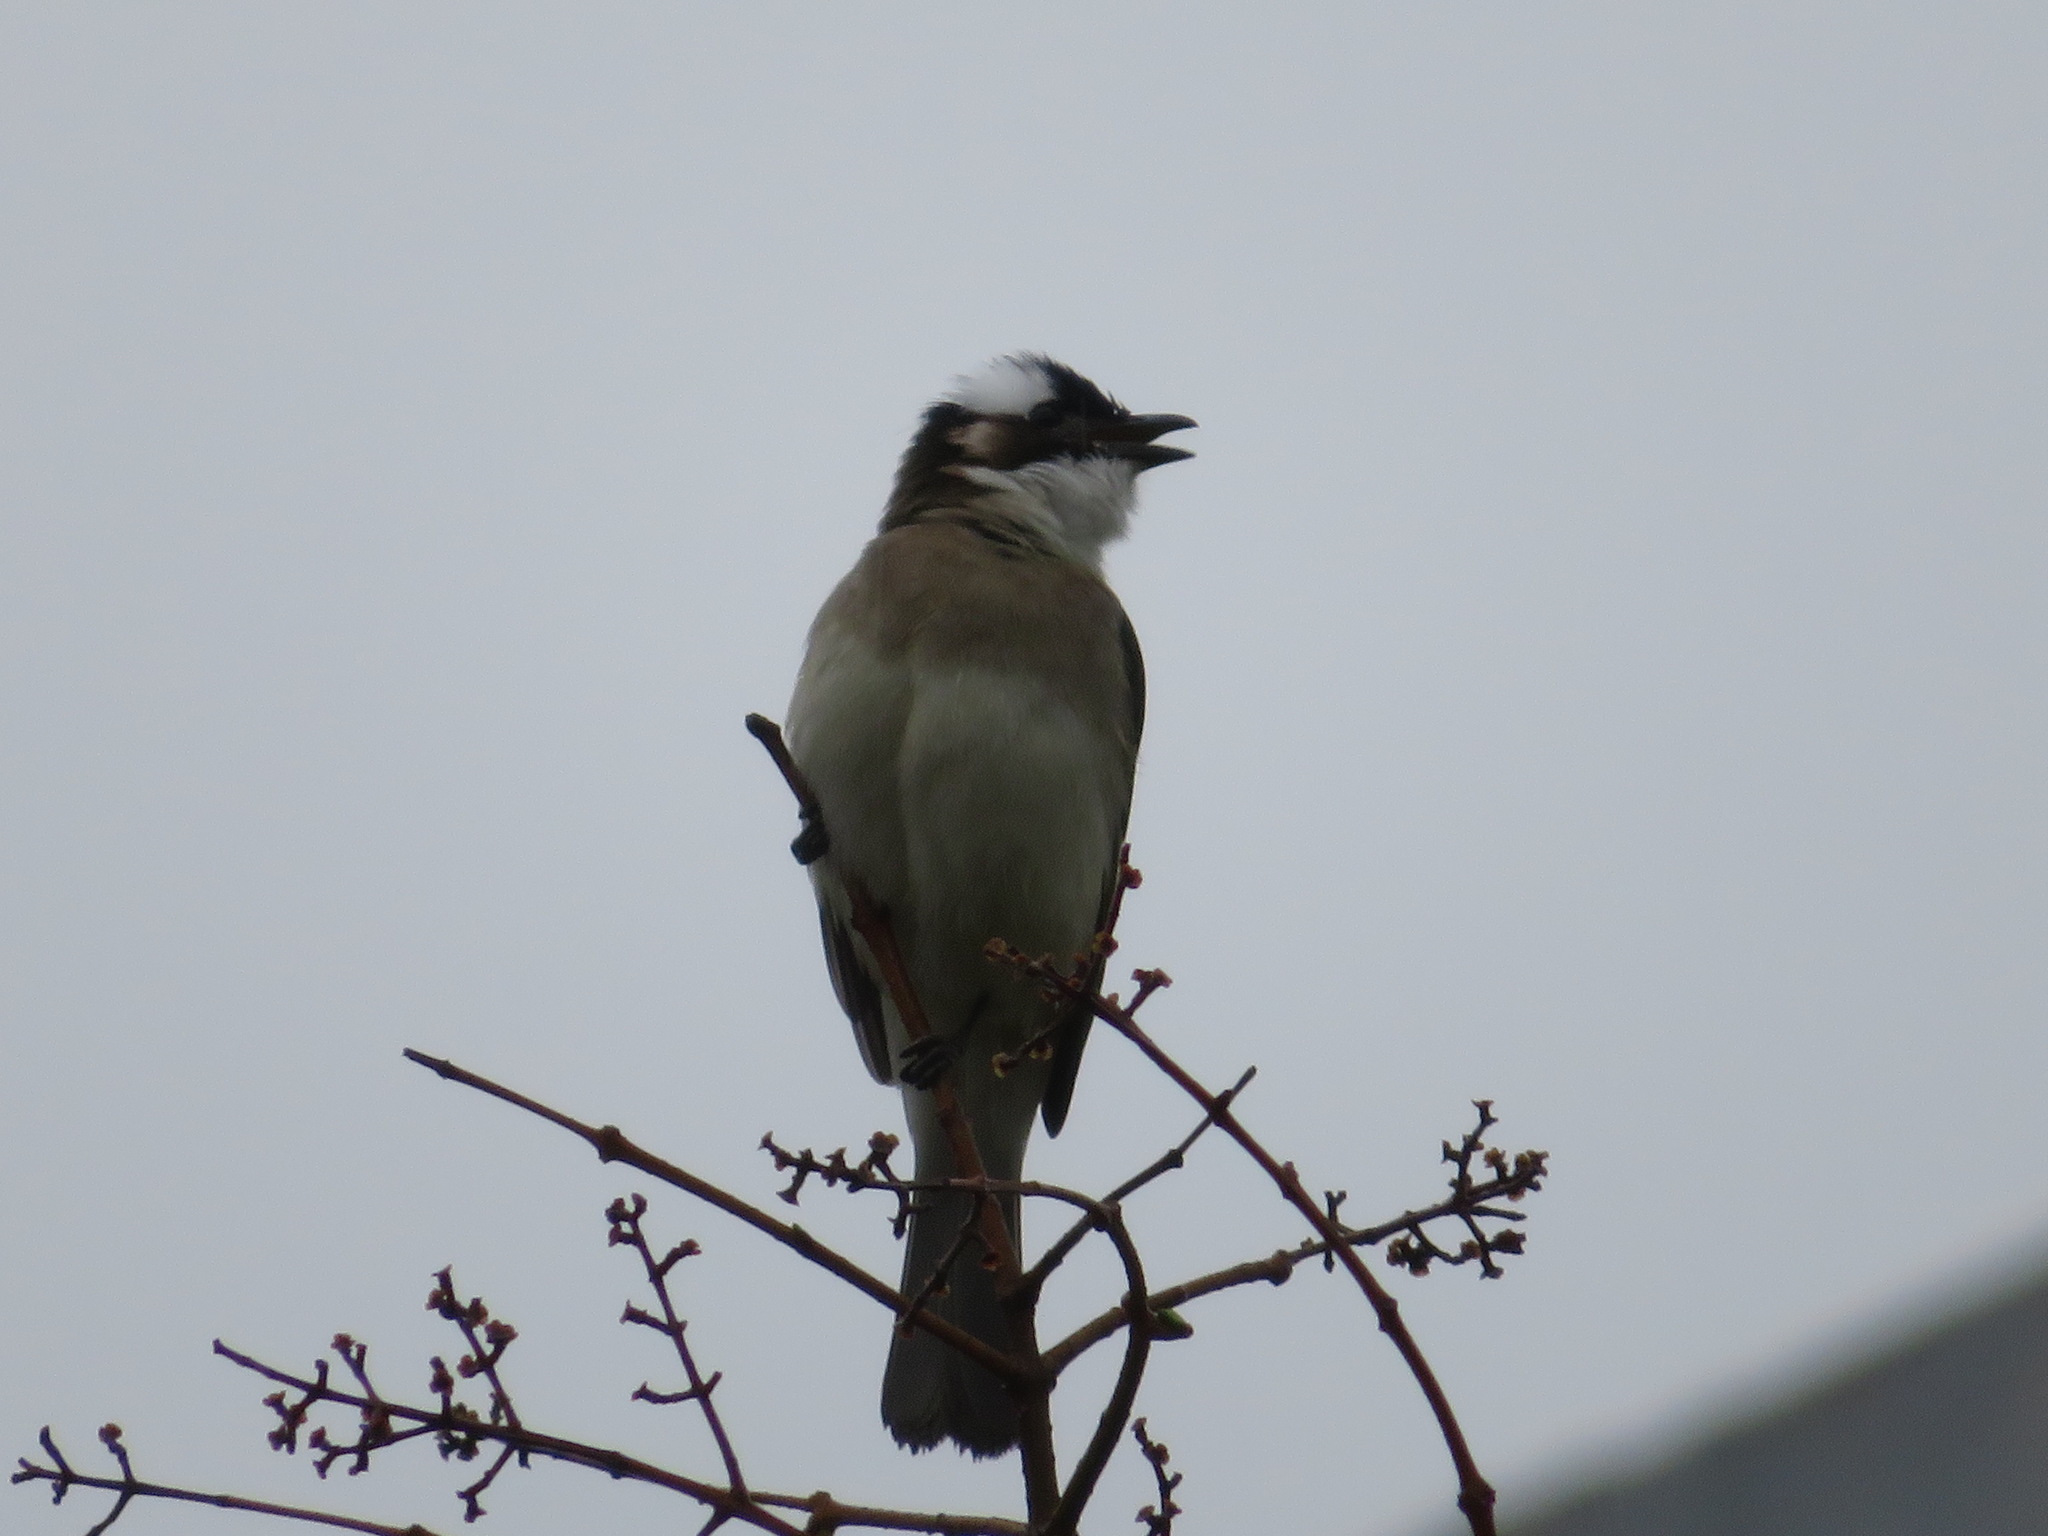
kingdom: Animalia
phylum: Chordata
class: Aves
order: Passeriformes
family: Pycnonotidae
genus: Pycnonotus
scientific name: Pycnonotus sinensis
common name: Light-vented bulbul
